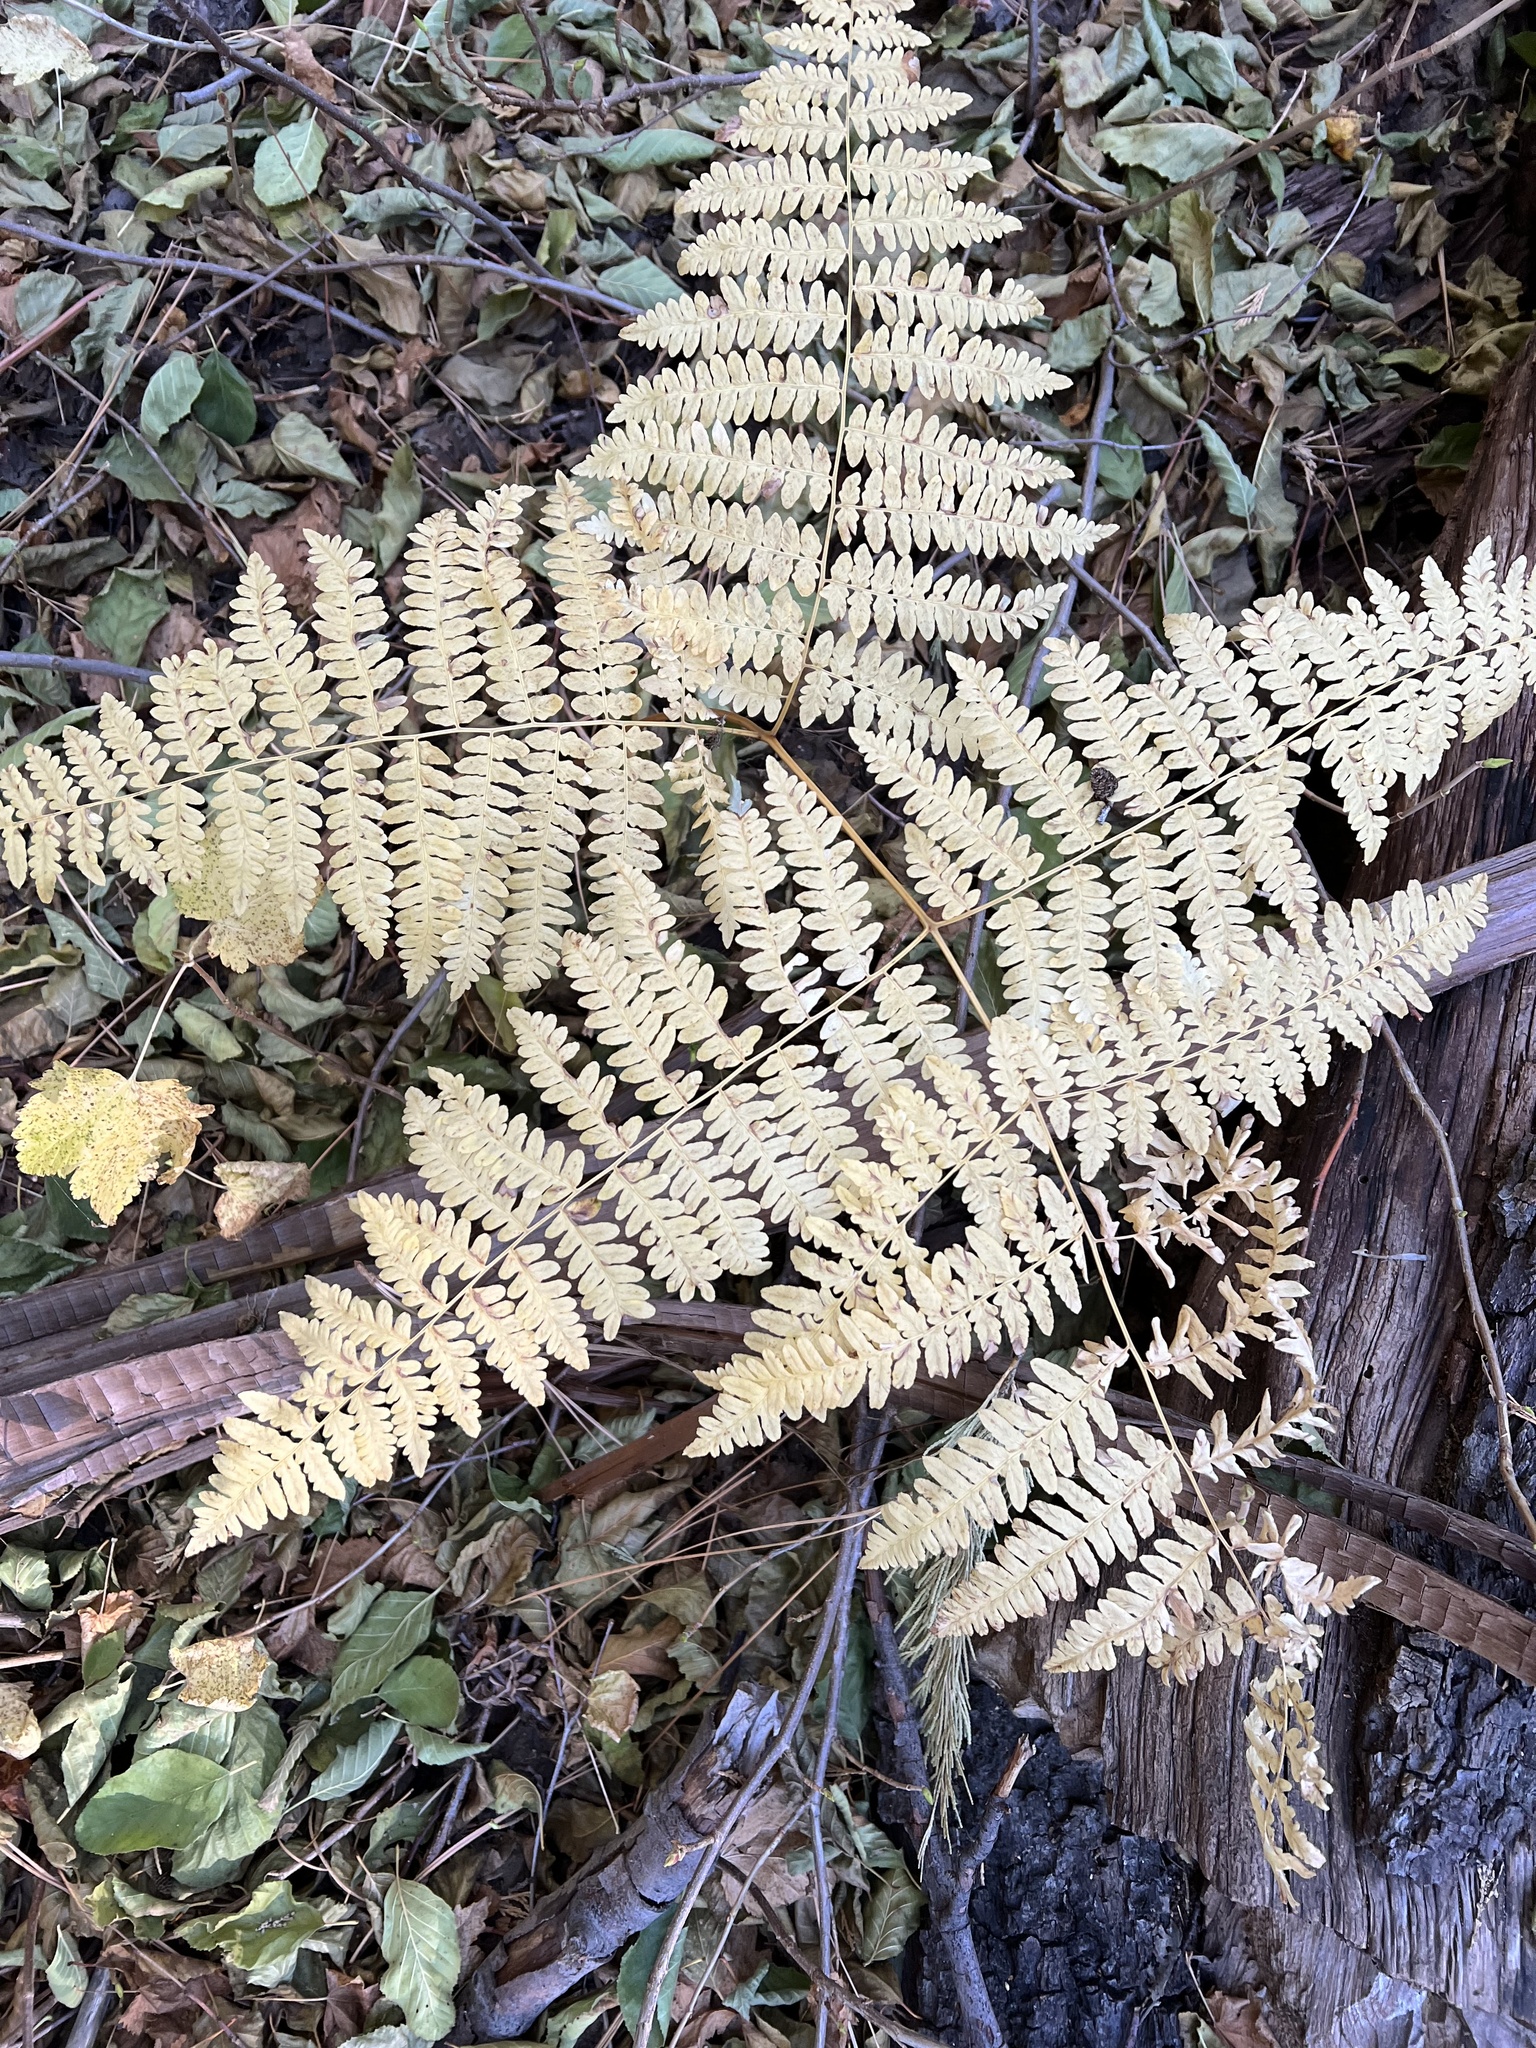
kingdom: Plantae
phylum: Tracheophyta
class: Polypodiopsida
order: Polypodiales
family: Dennstaedtiaceae
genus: Pteridium
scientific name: Pteridium aquilinum
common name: Bracken
